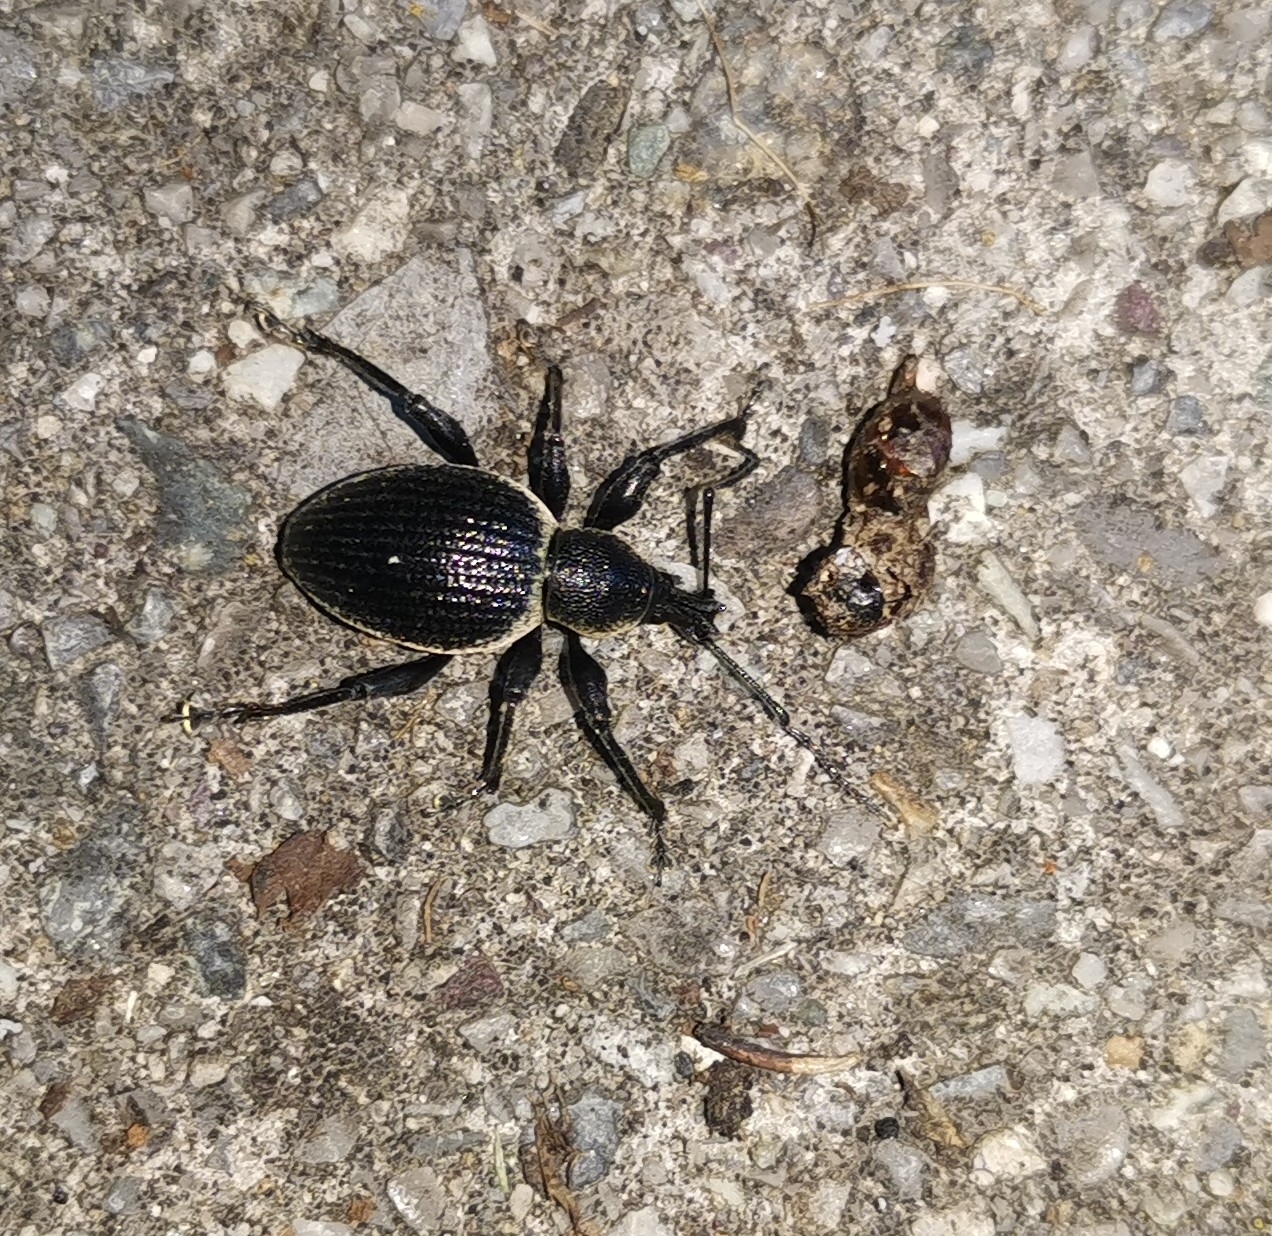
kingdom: Animalia
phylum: Arthropoda
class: Insecta
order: Coleoptera
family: Curculionidae
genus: Otiorhynchus
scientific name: Otiorhynchus vehemens
